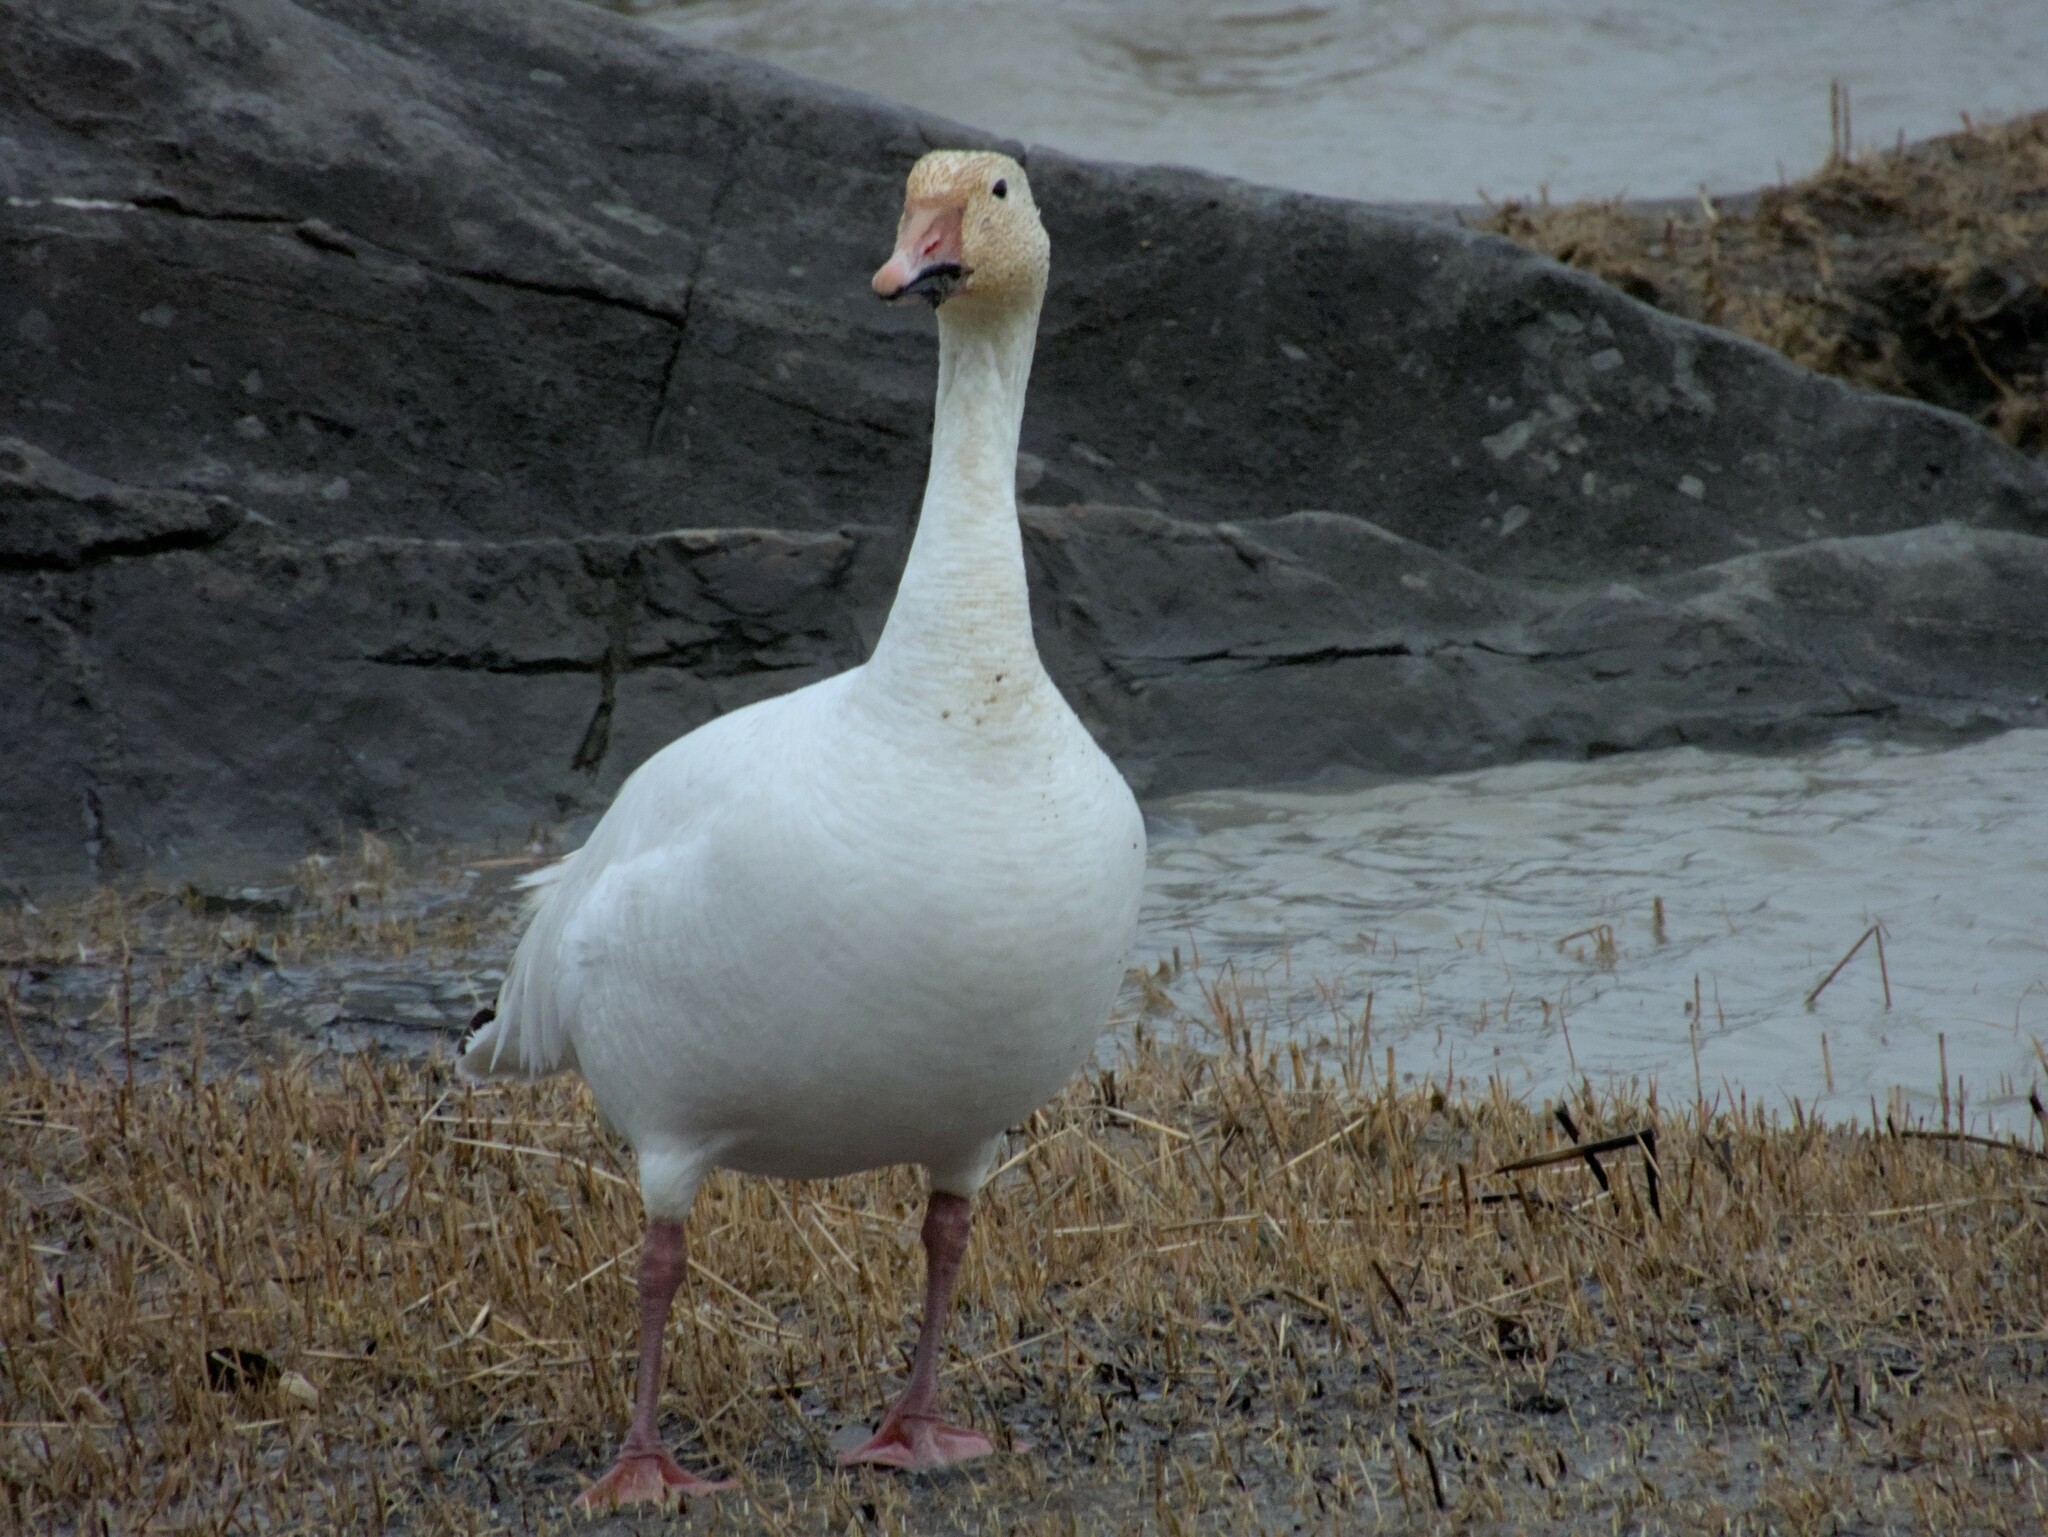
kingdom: Animalia
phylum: Chordata
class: Aves
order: Anseriformes
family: Anatidae
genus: Anser
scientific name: Anser caerulescens
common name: Snow goose
